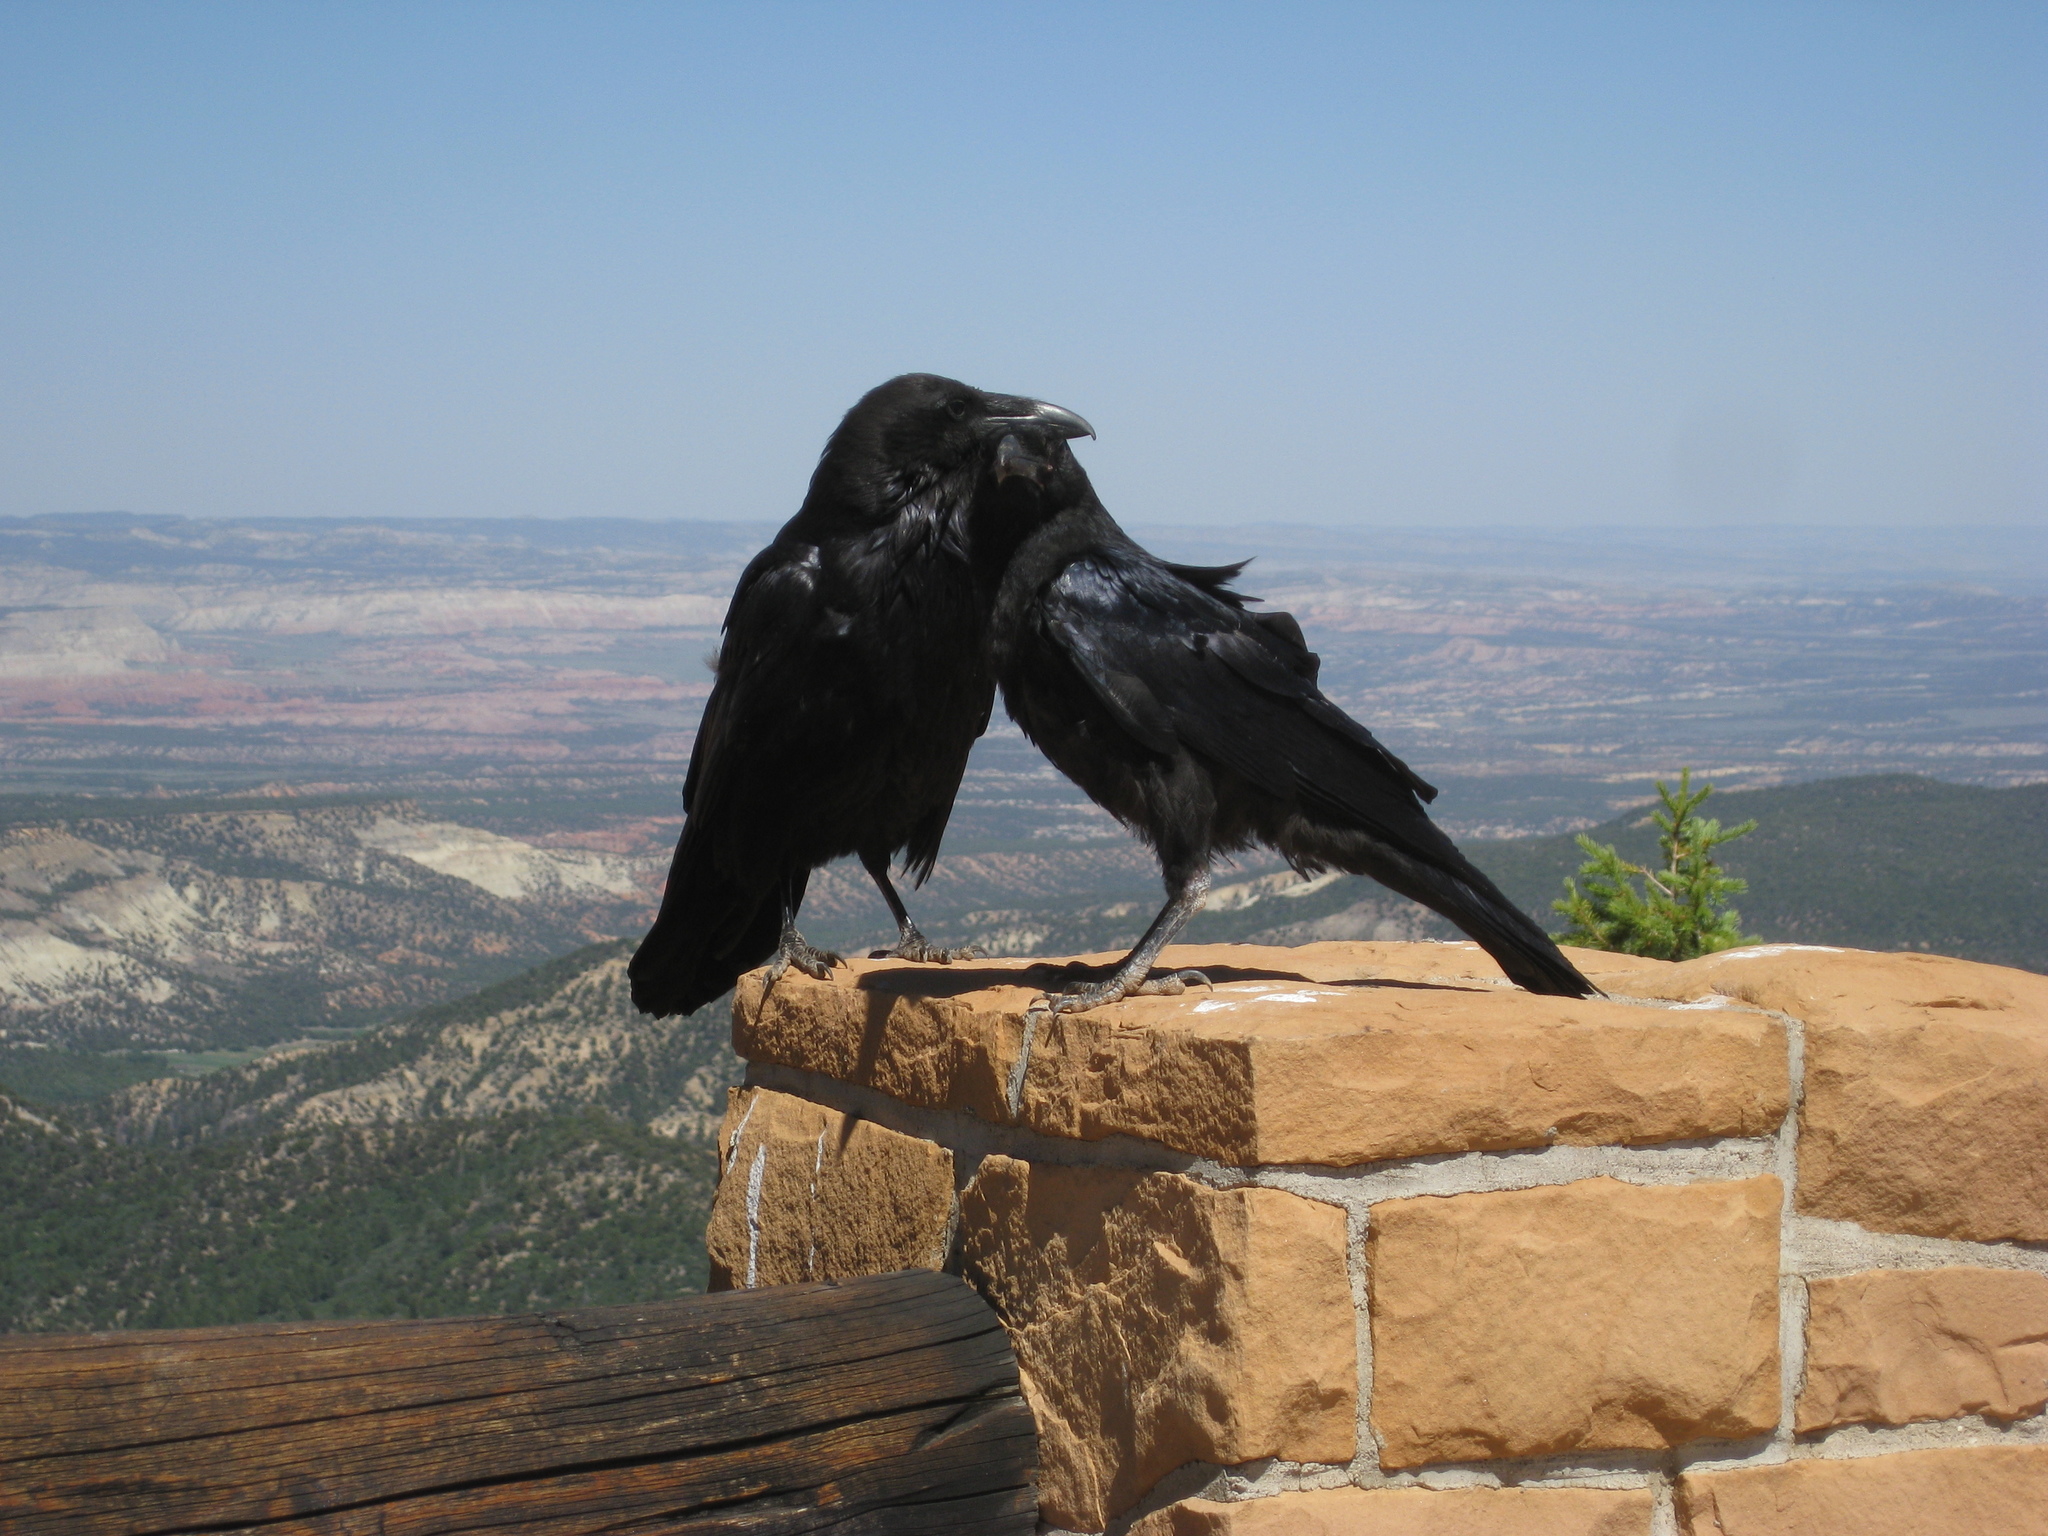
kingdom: Animalia
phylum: Chordata
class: Aves
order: Passeriformes
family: Corvidae
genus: Corvus
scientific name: Corvus corax
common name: Common raven
